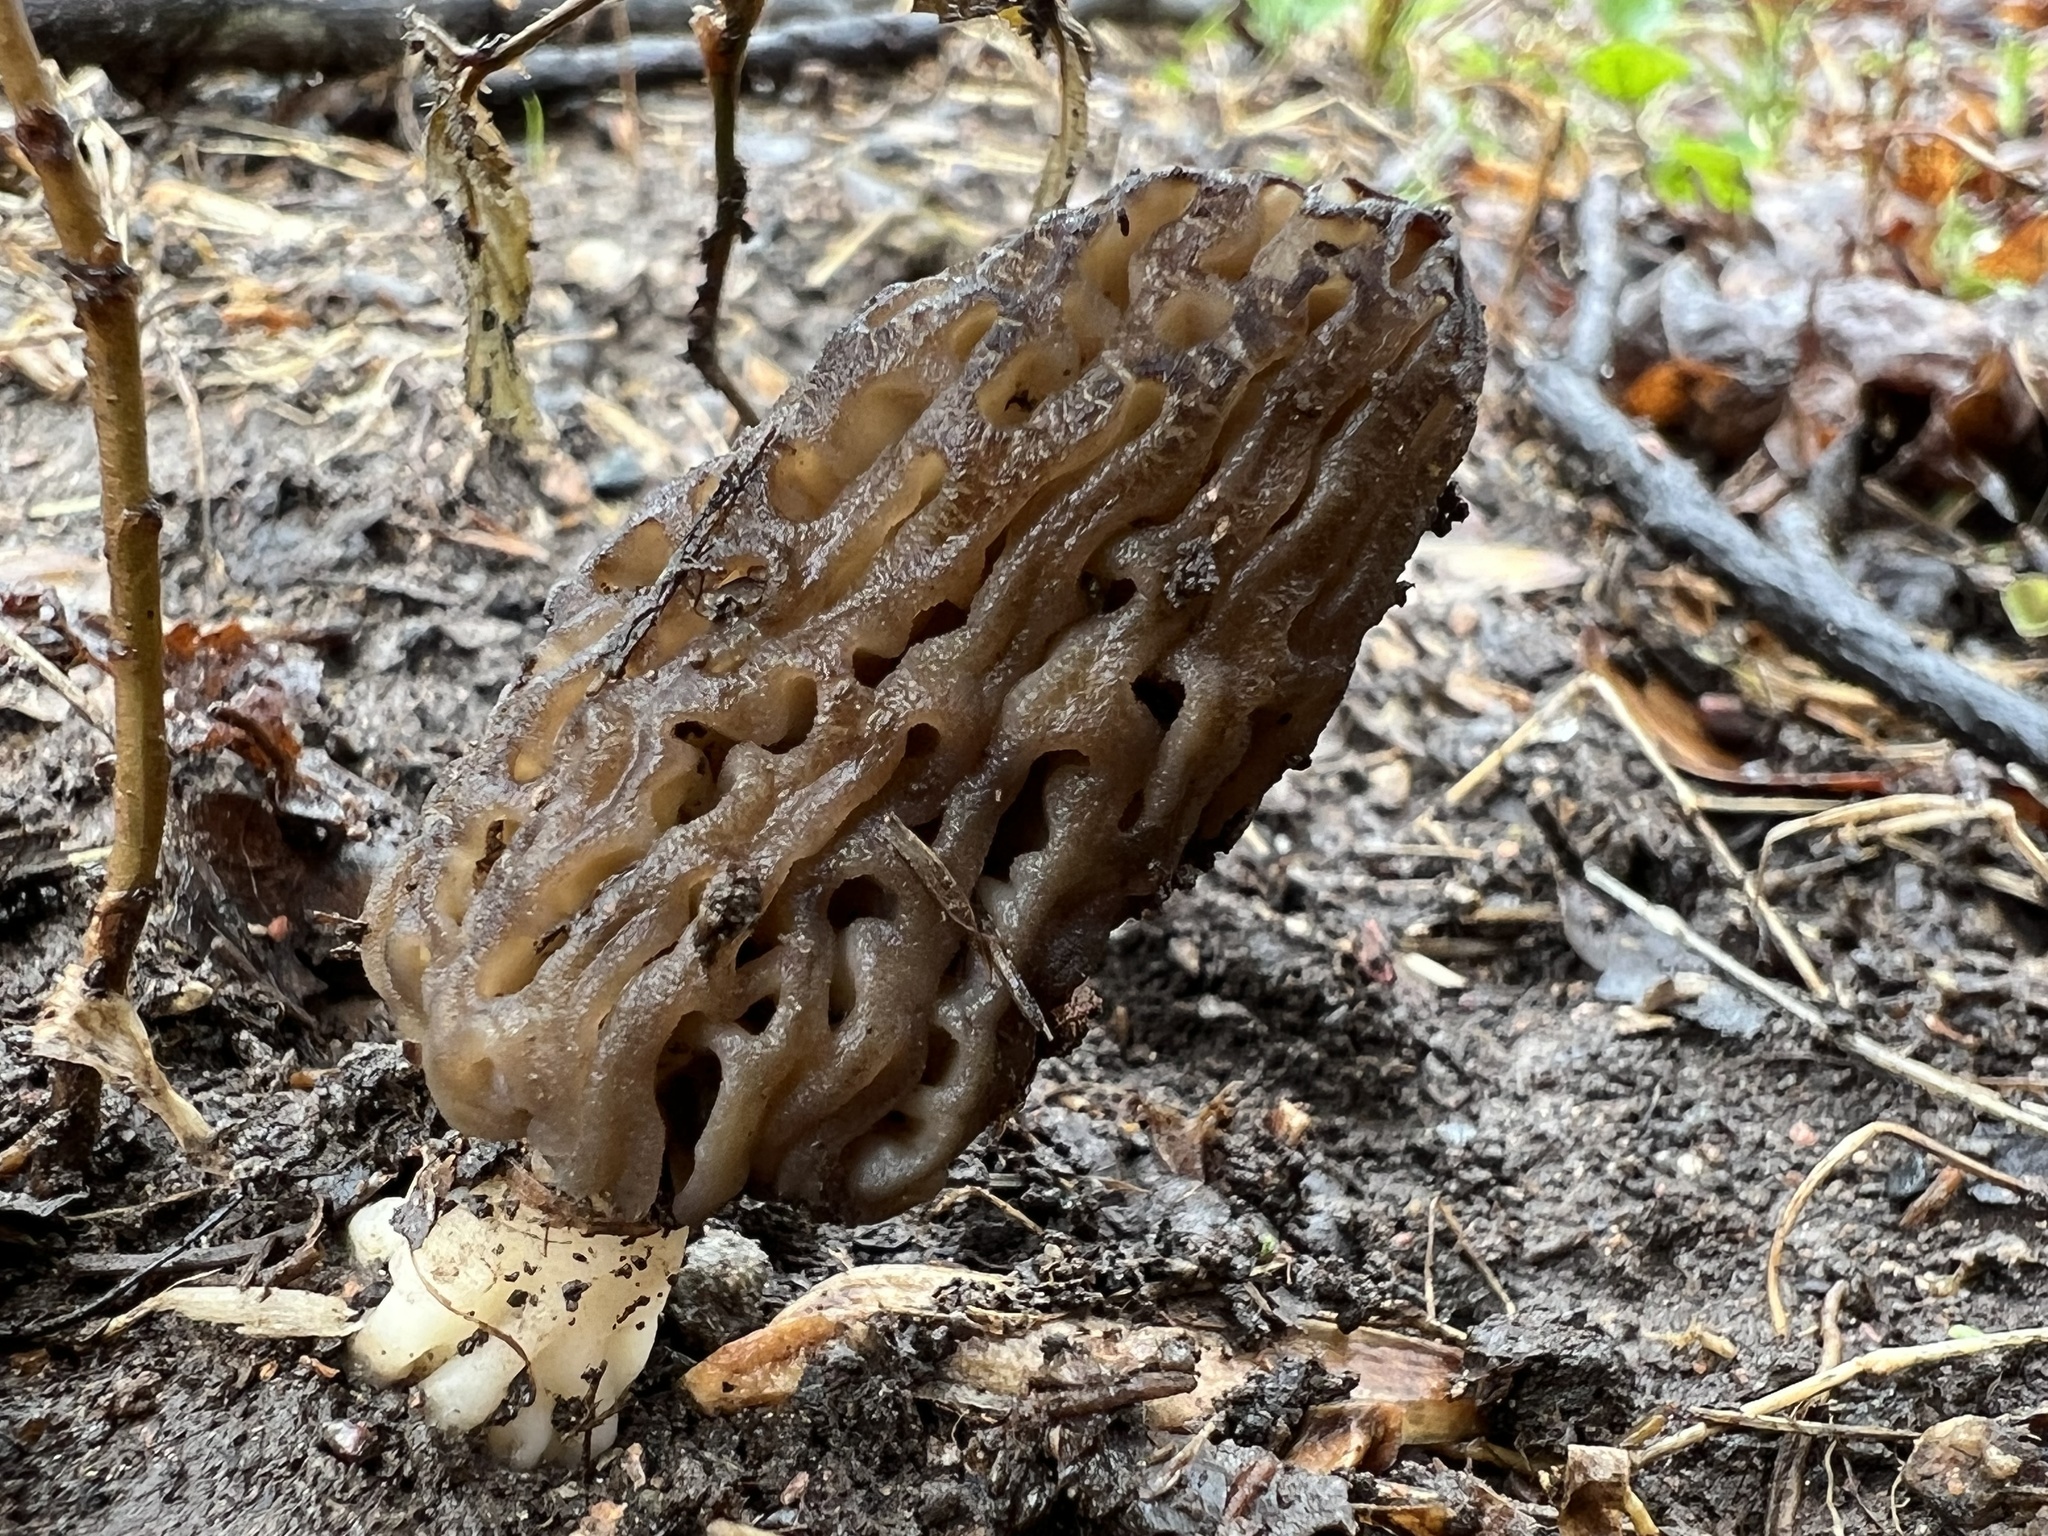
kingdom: Fungi
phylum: Ascomycota
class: Pezizomycetes
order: Pezizales
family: Morchellaceae
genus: Morchella
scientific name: Morchella angusticeps
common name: Black morel
